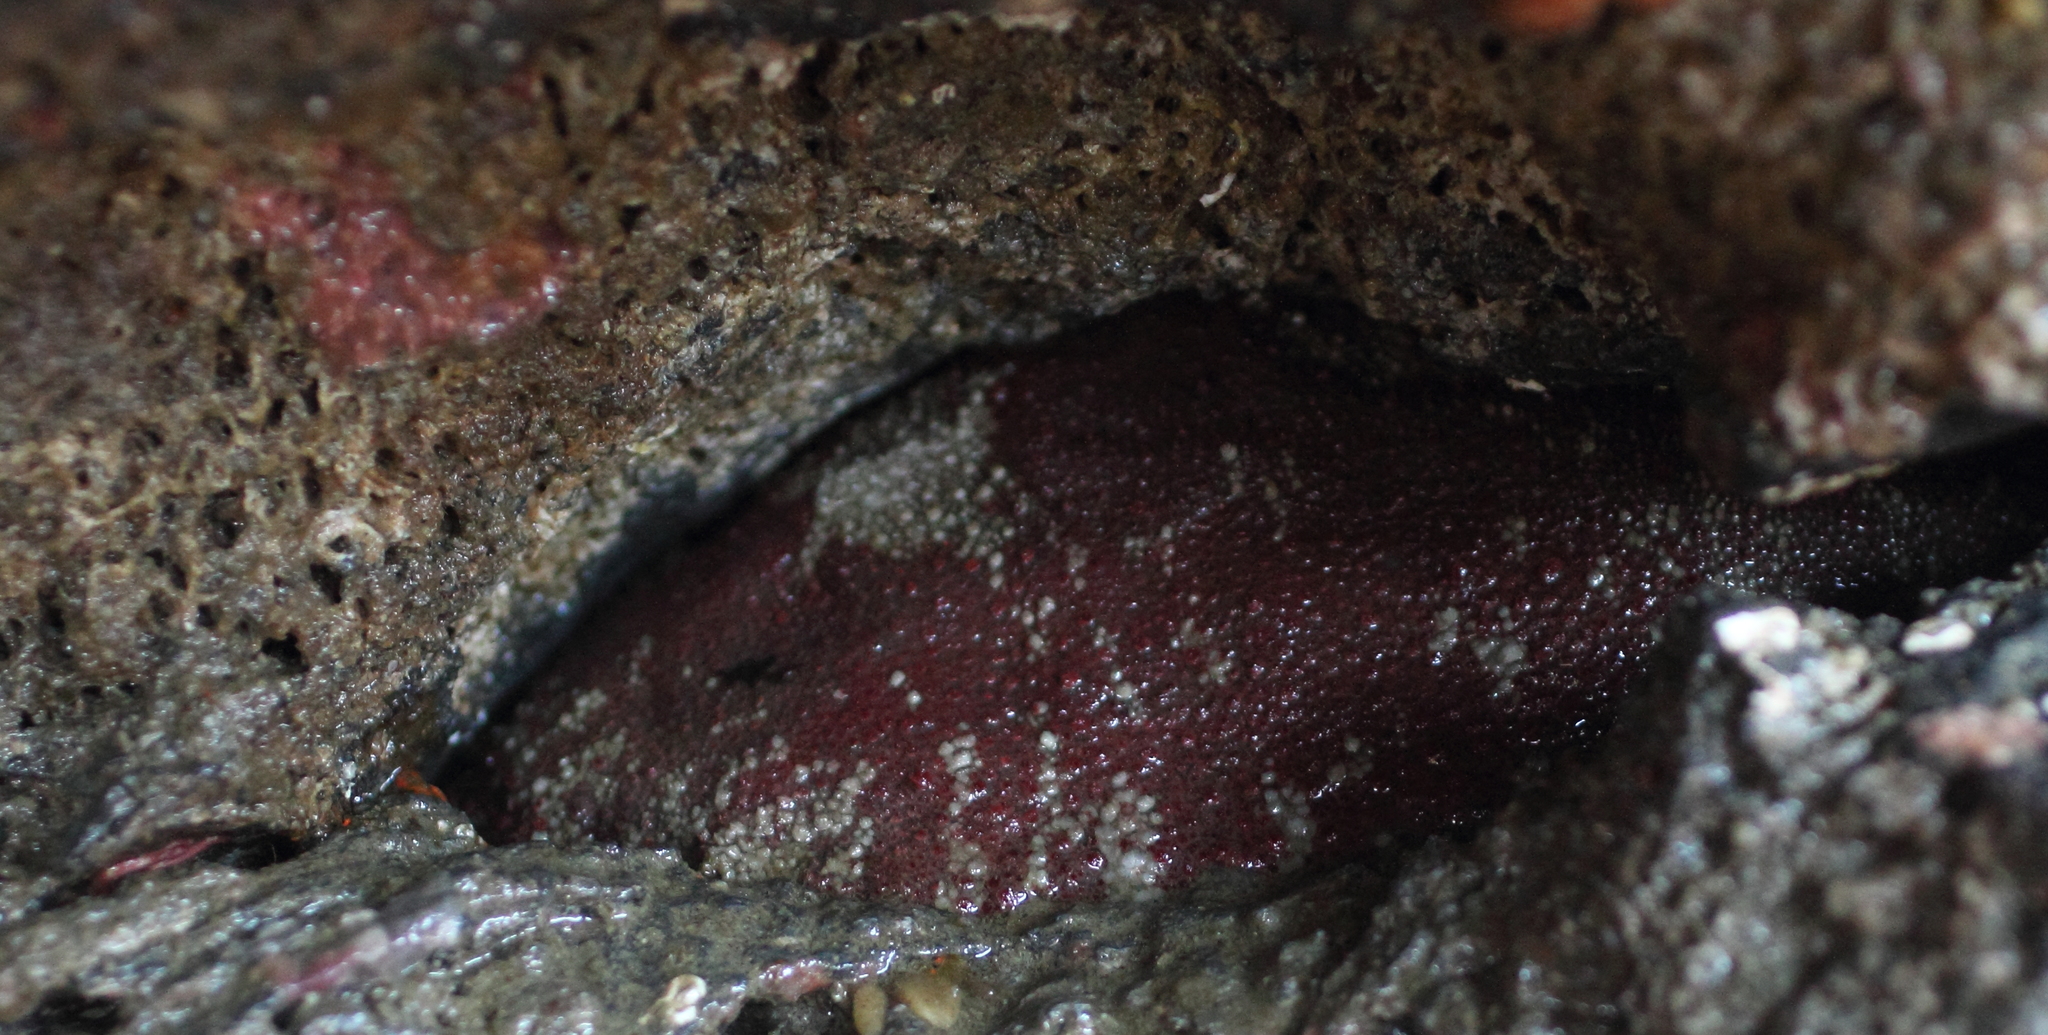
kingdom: Animalia
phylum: Mollusca
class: Polyplacophora
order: Chitonida
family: Acanthochitonidae
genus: Cryptochiton
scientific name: Cryptochiton stelleri
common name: Giant pacific chiton
